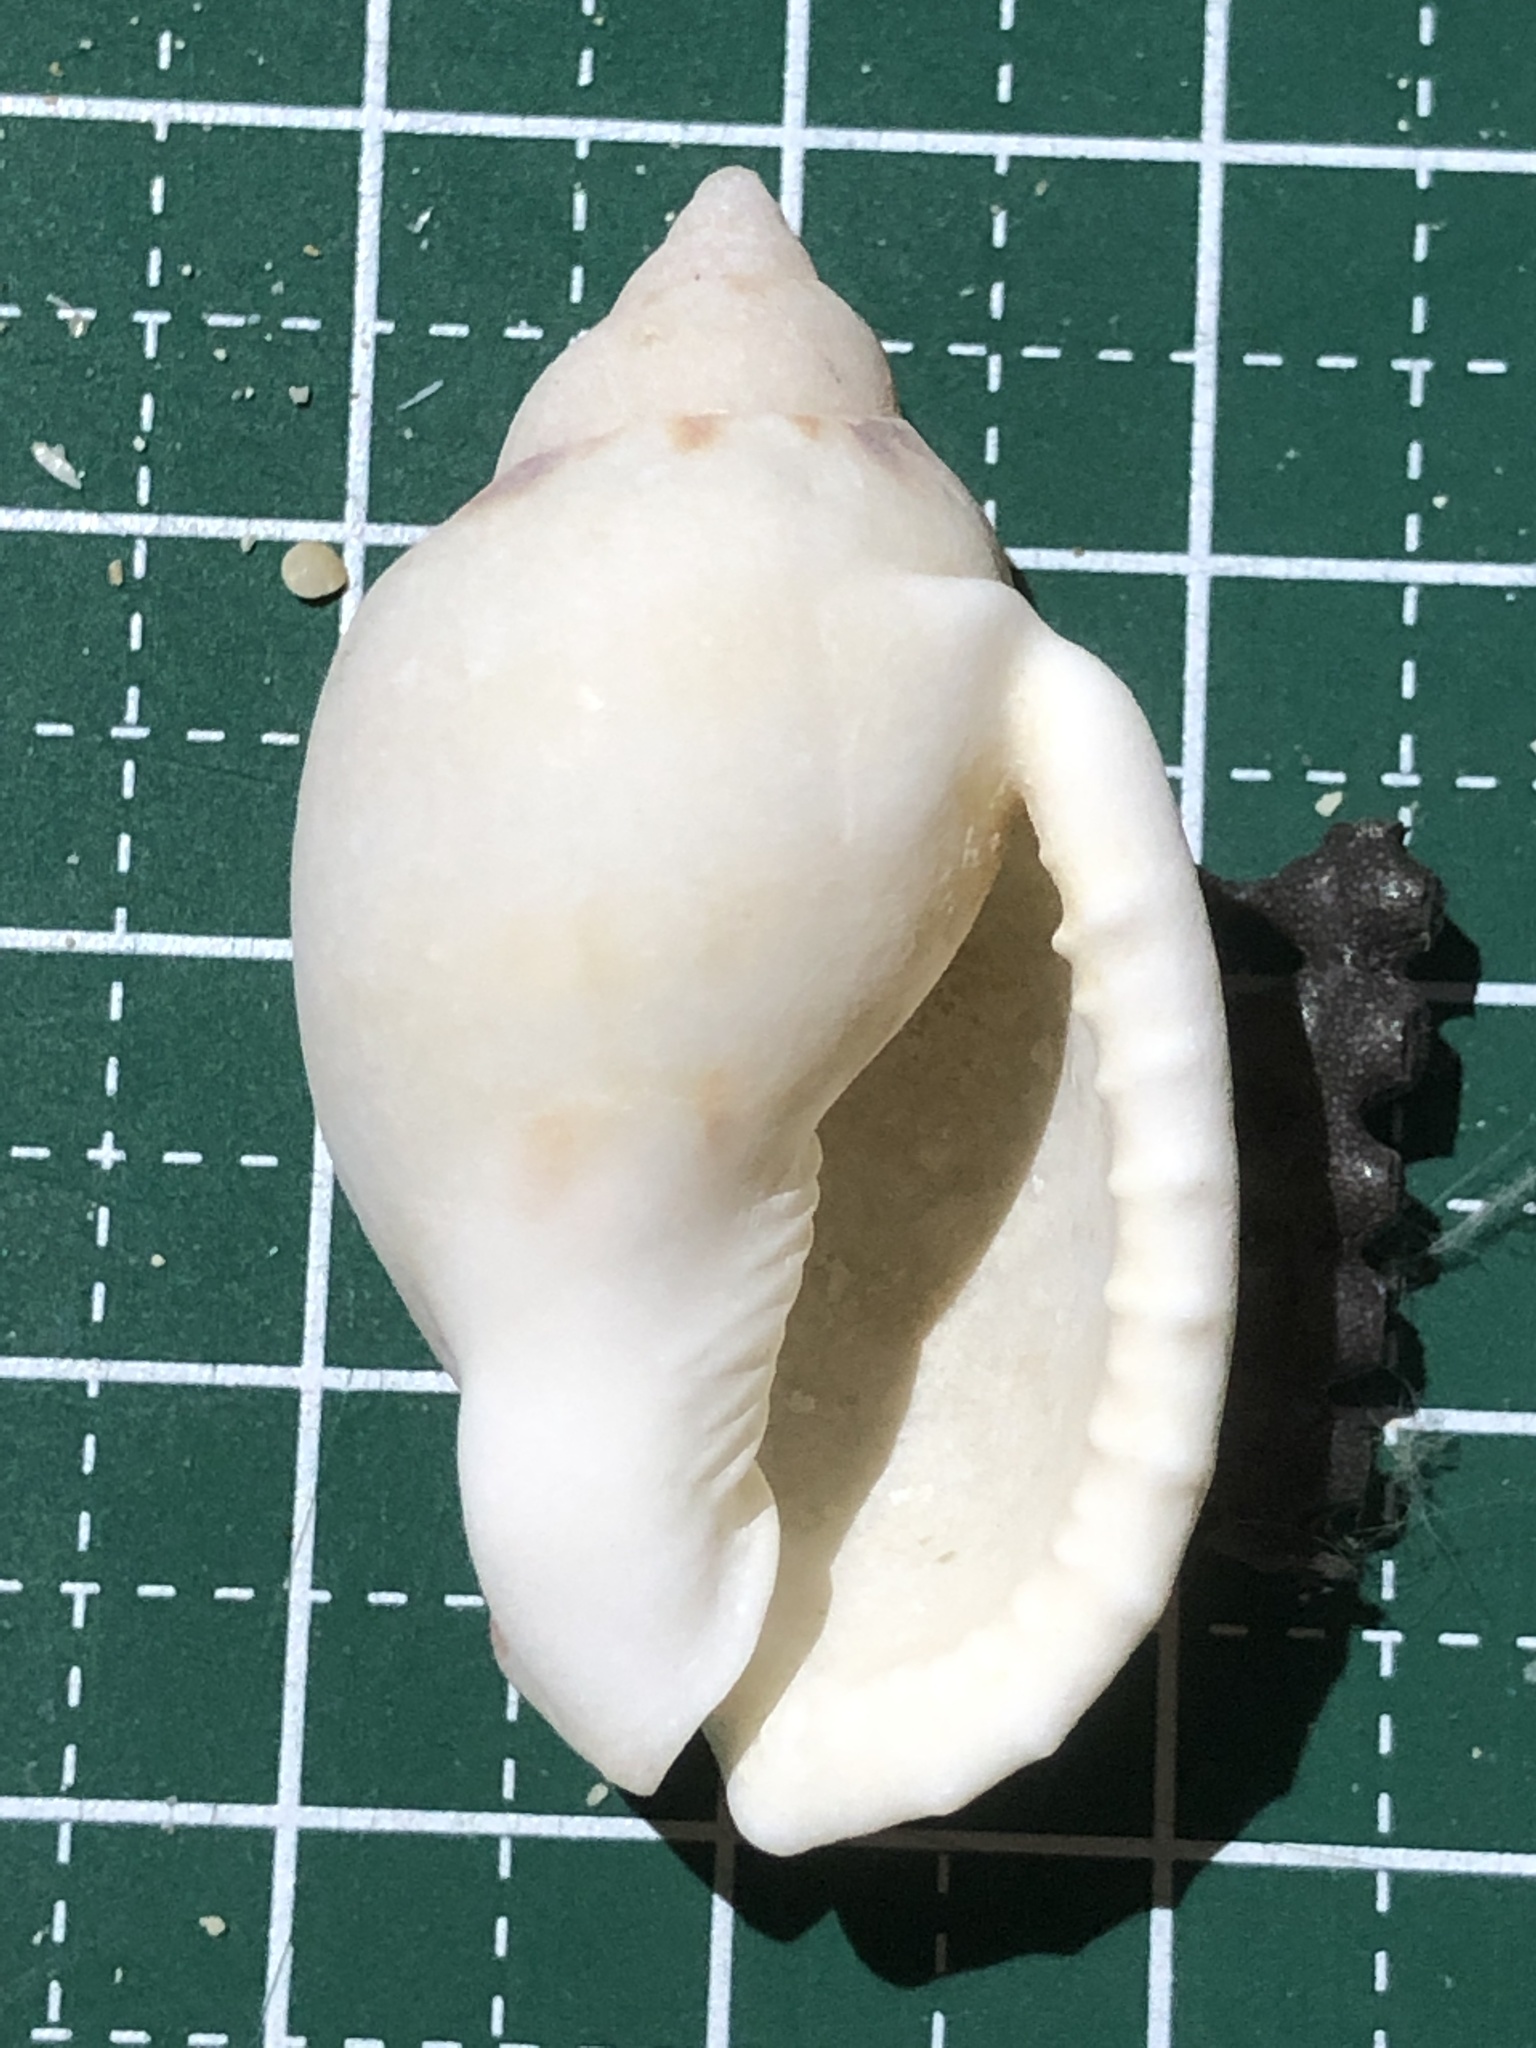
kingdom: Animalia
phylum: Mollusca
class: Gastropoda
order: Littorinimorpha
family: Cassidae
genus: Casmaria
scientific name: Casmaria ponderosa
